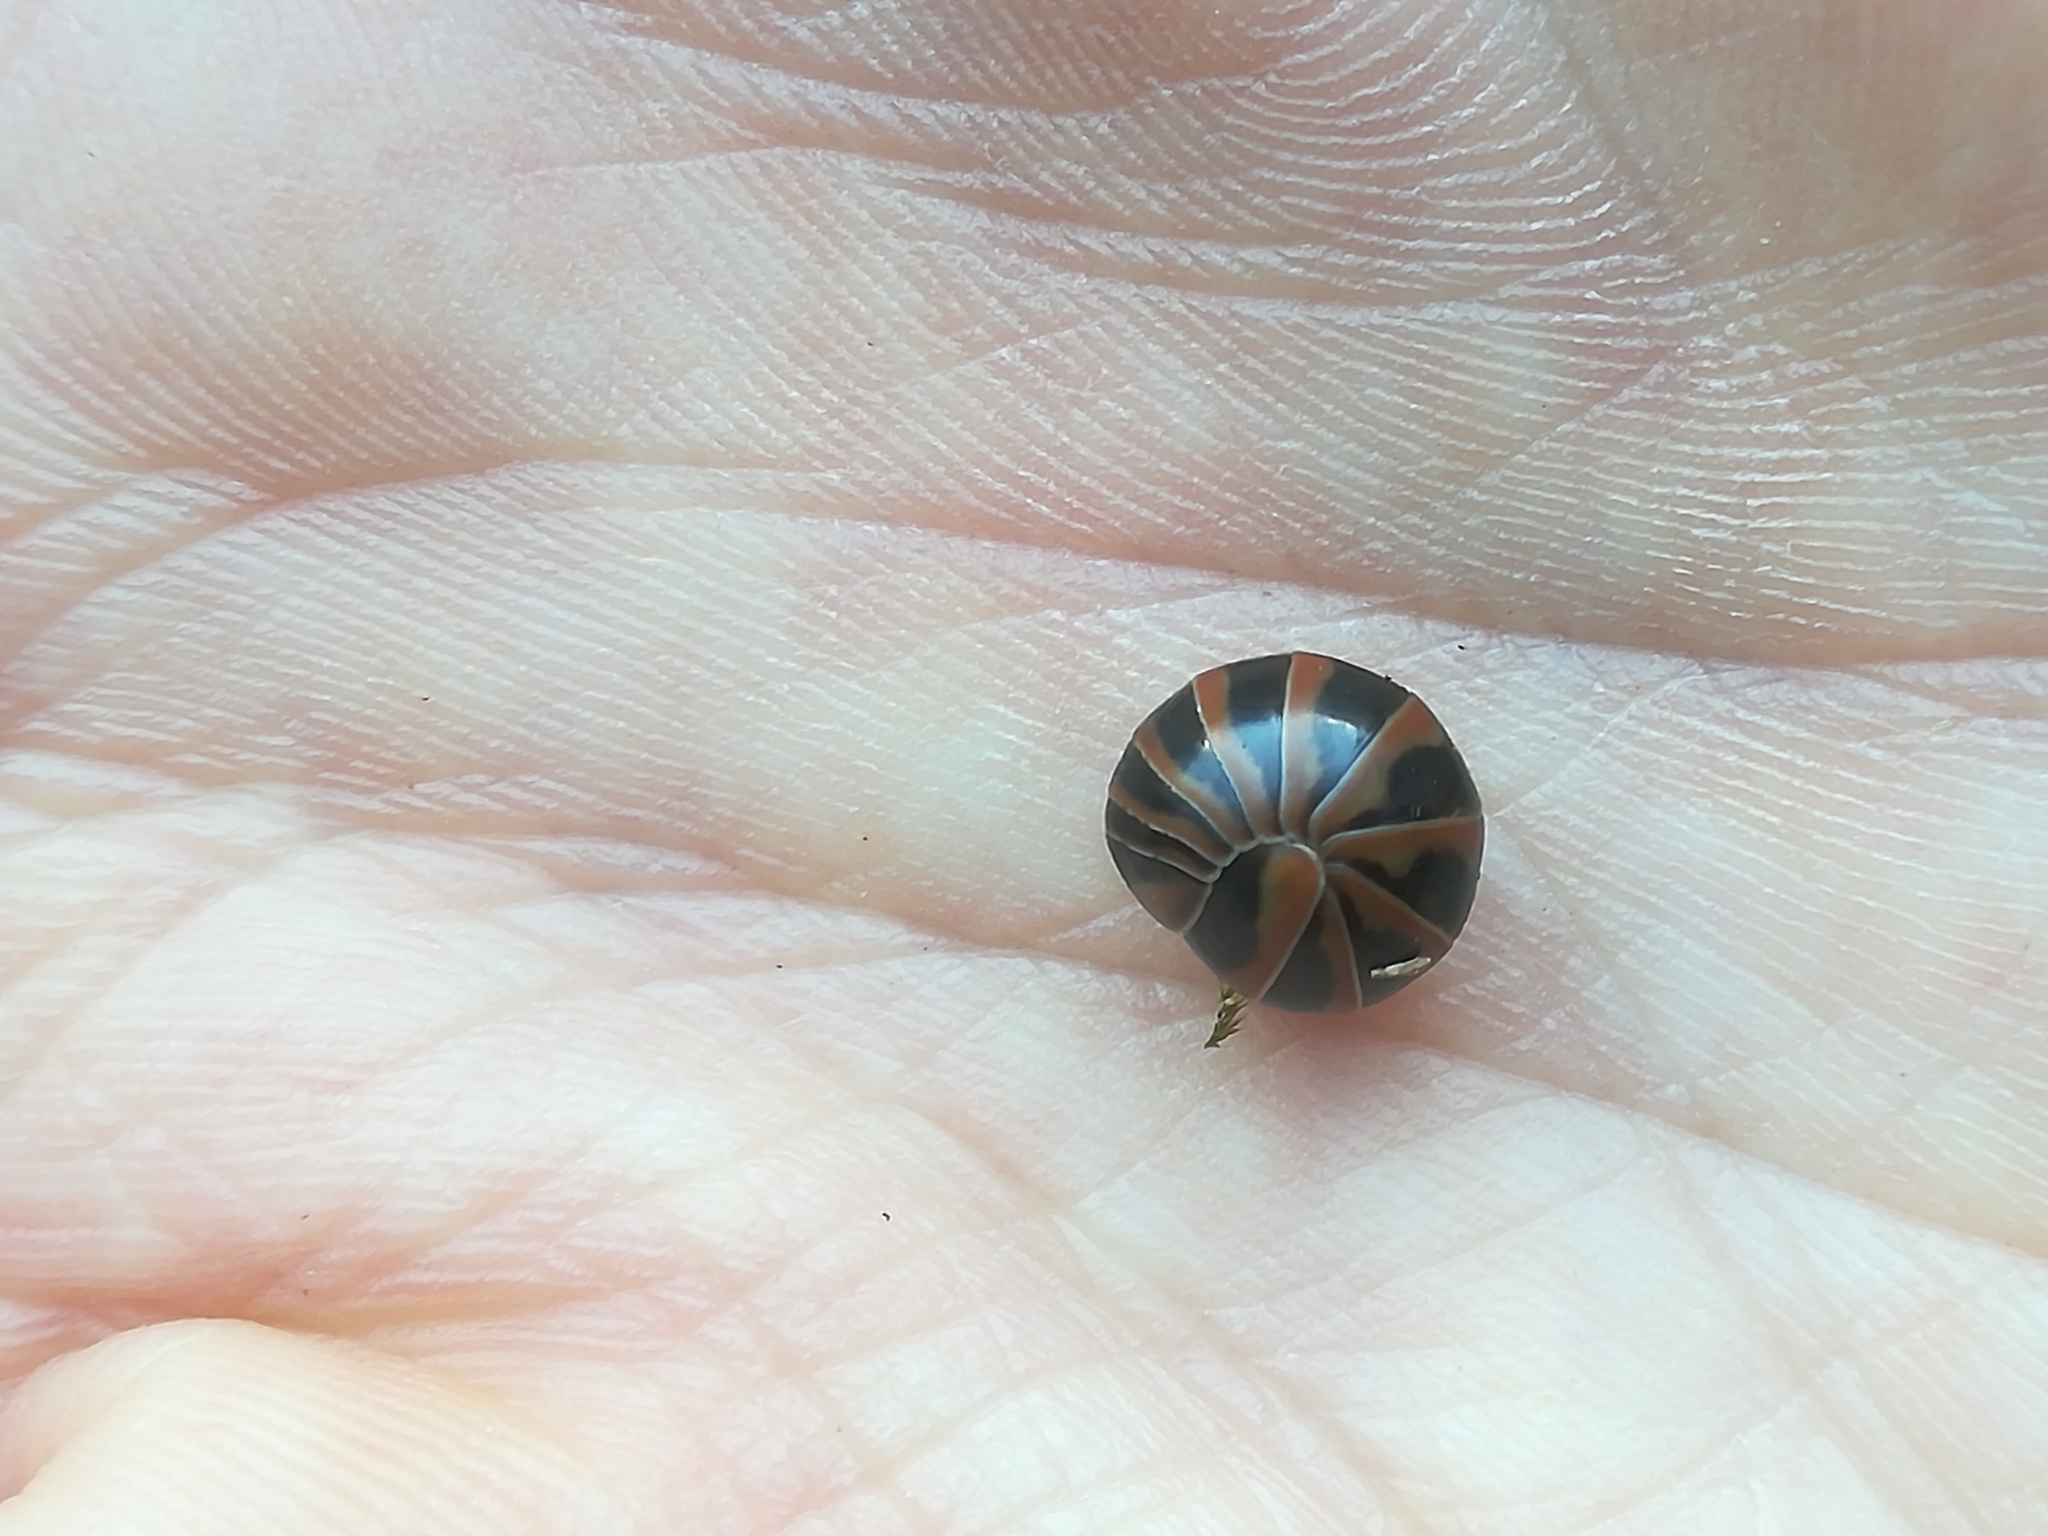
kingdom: Animalia
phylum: Arthropoda
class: Diplopoda
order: Glomerida
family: Glomeridae
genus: Glomeris
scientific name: Glomeris transalpina
